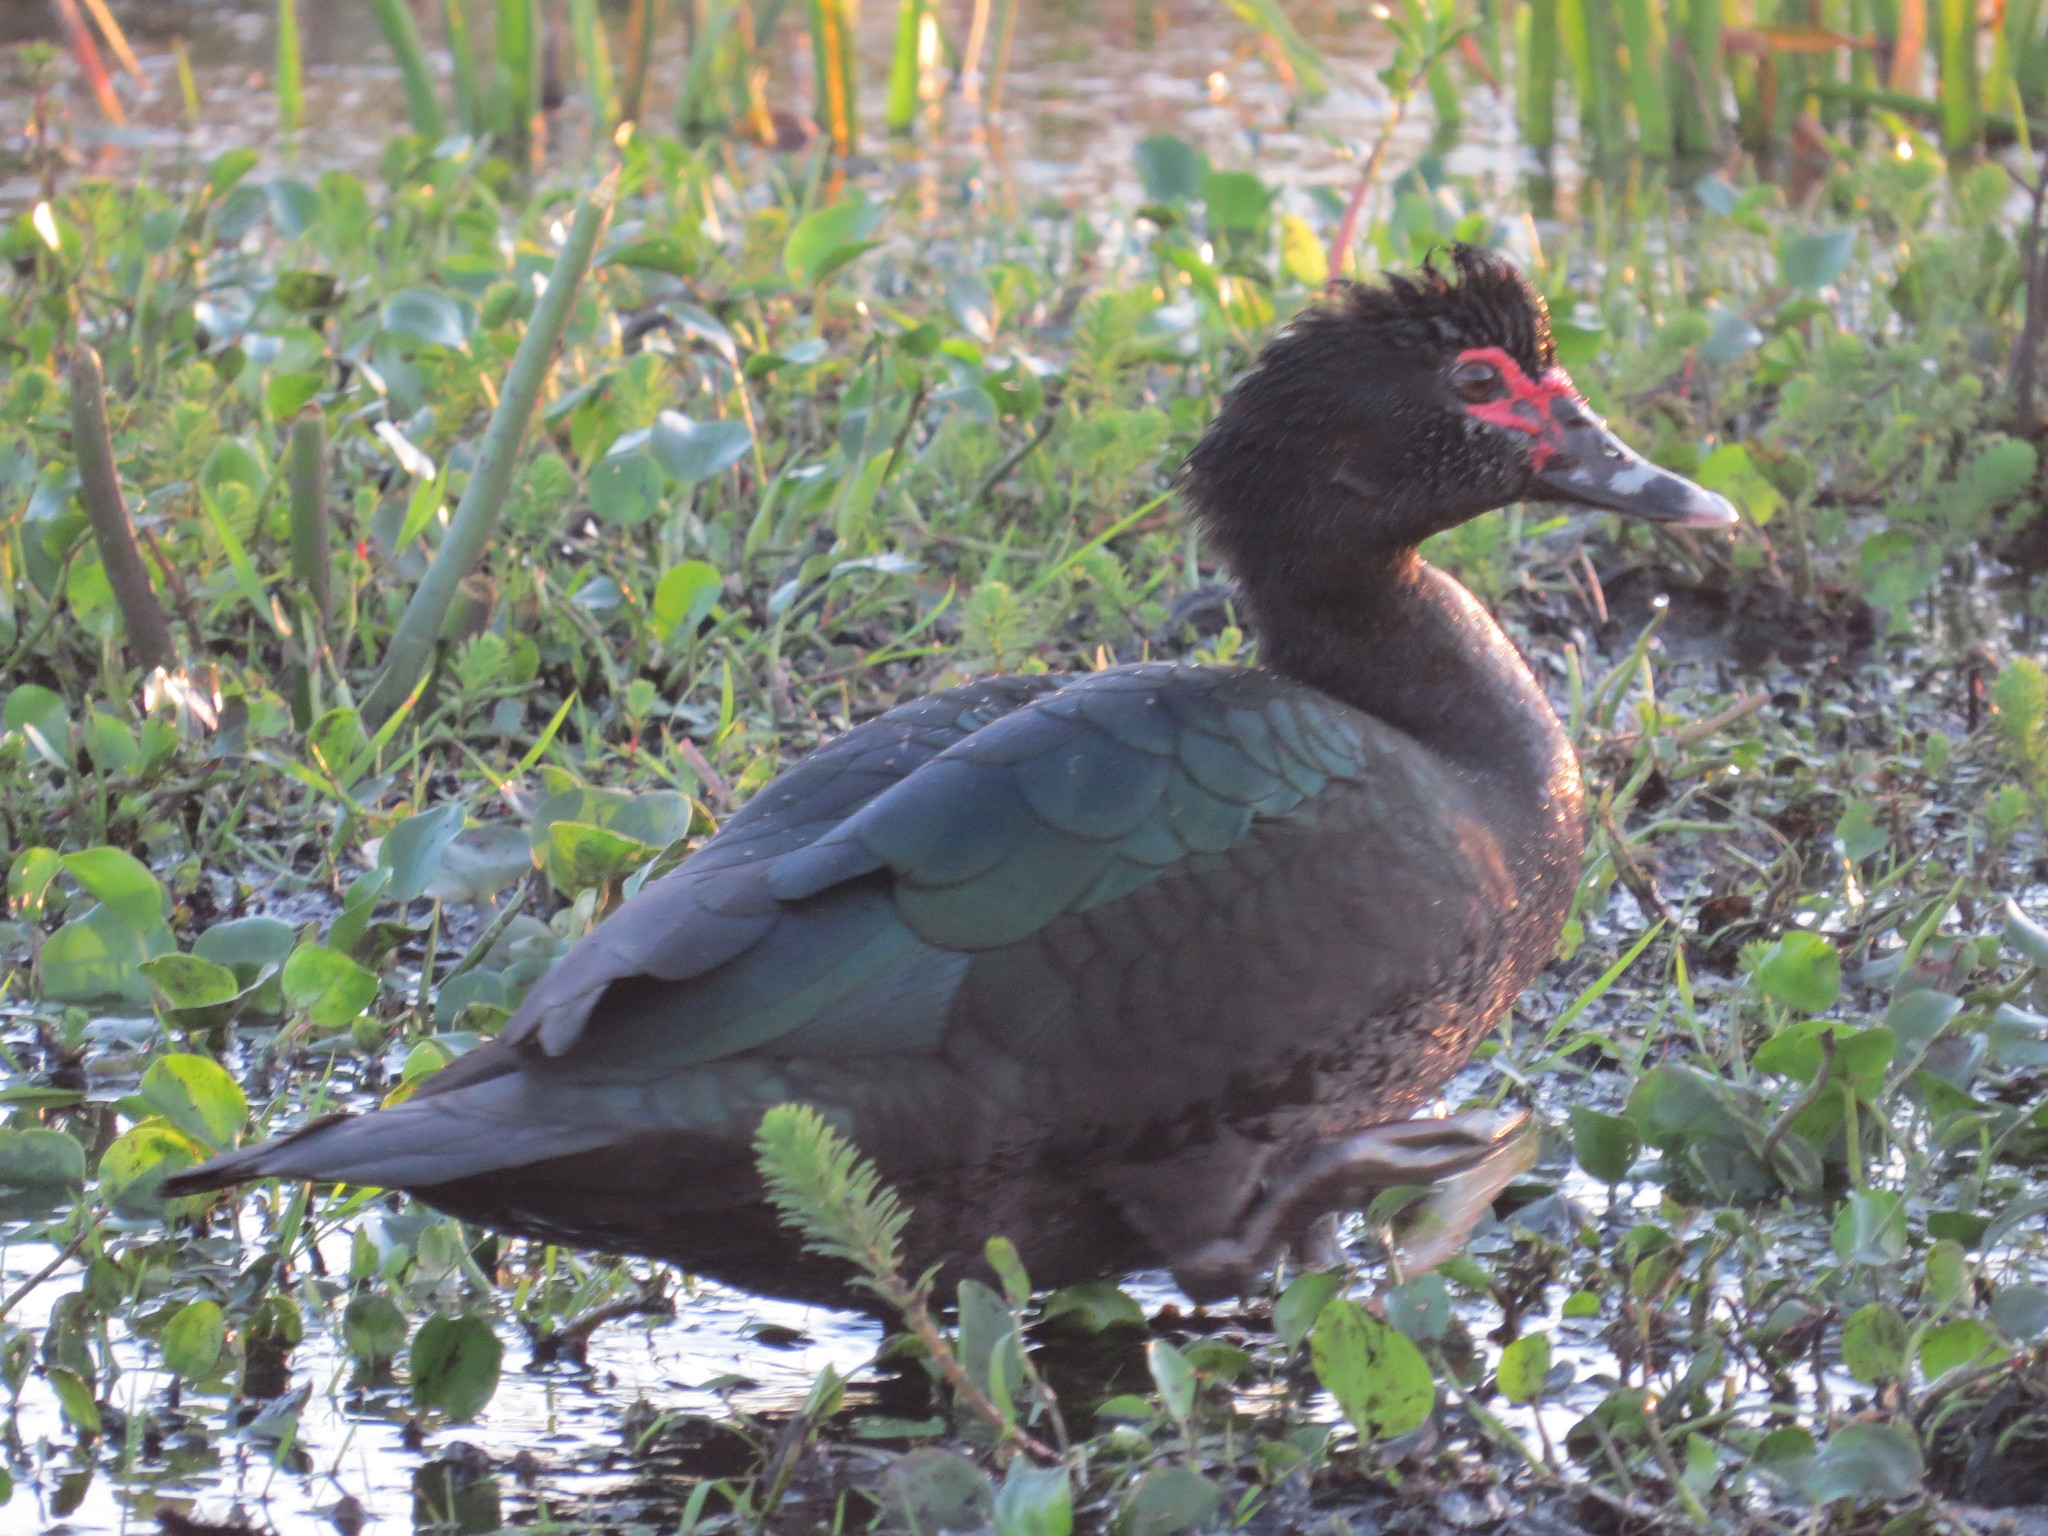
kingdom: Animalia
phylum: Chordata
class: Aves
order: Anseriformes
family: Anatidae
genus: Cairina
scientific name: Cairina moschata
